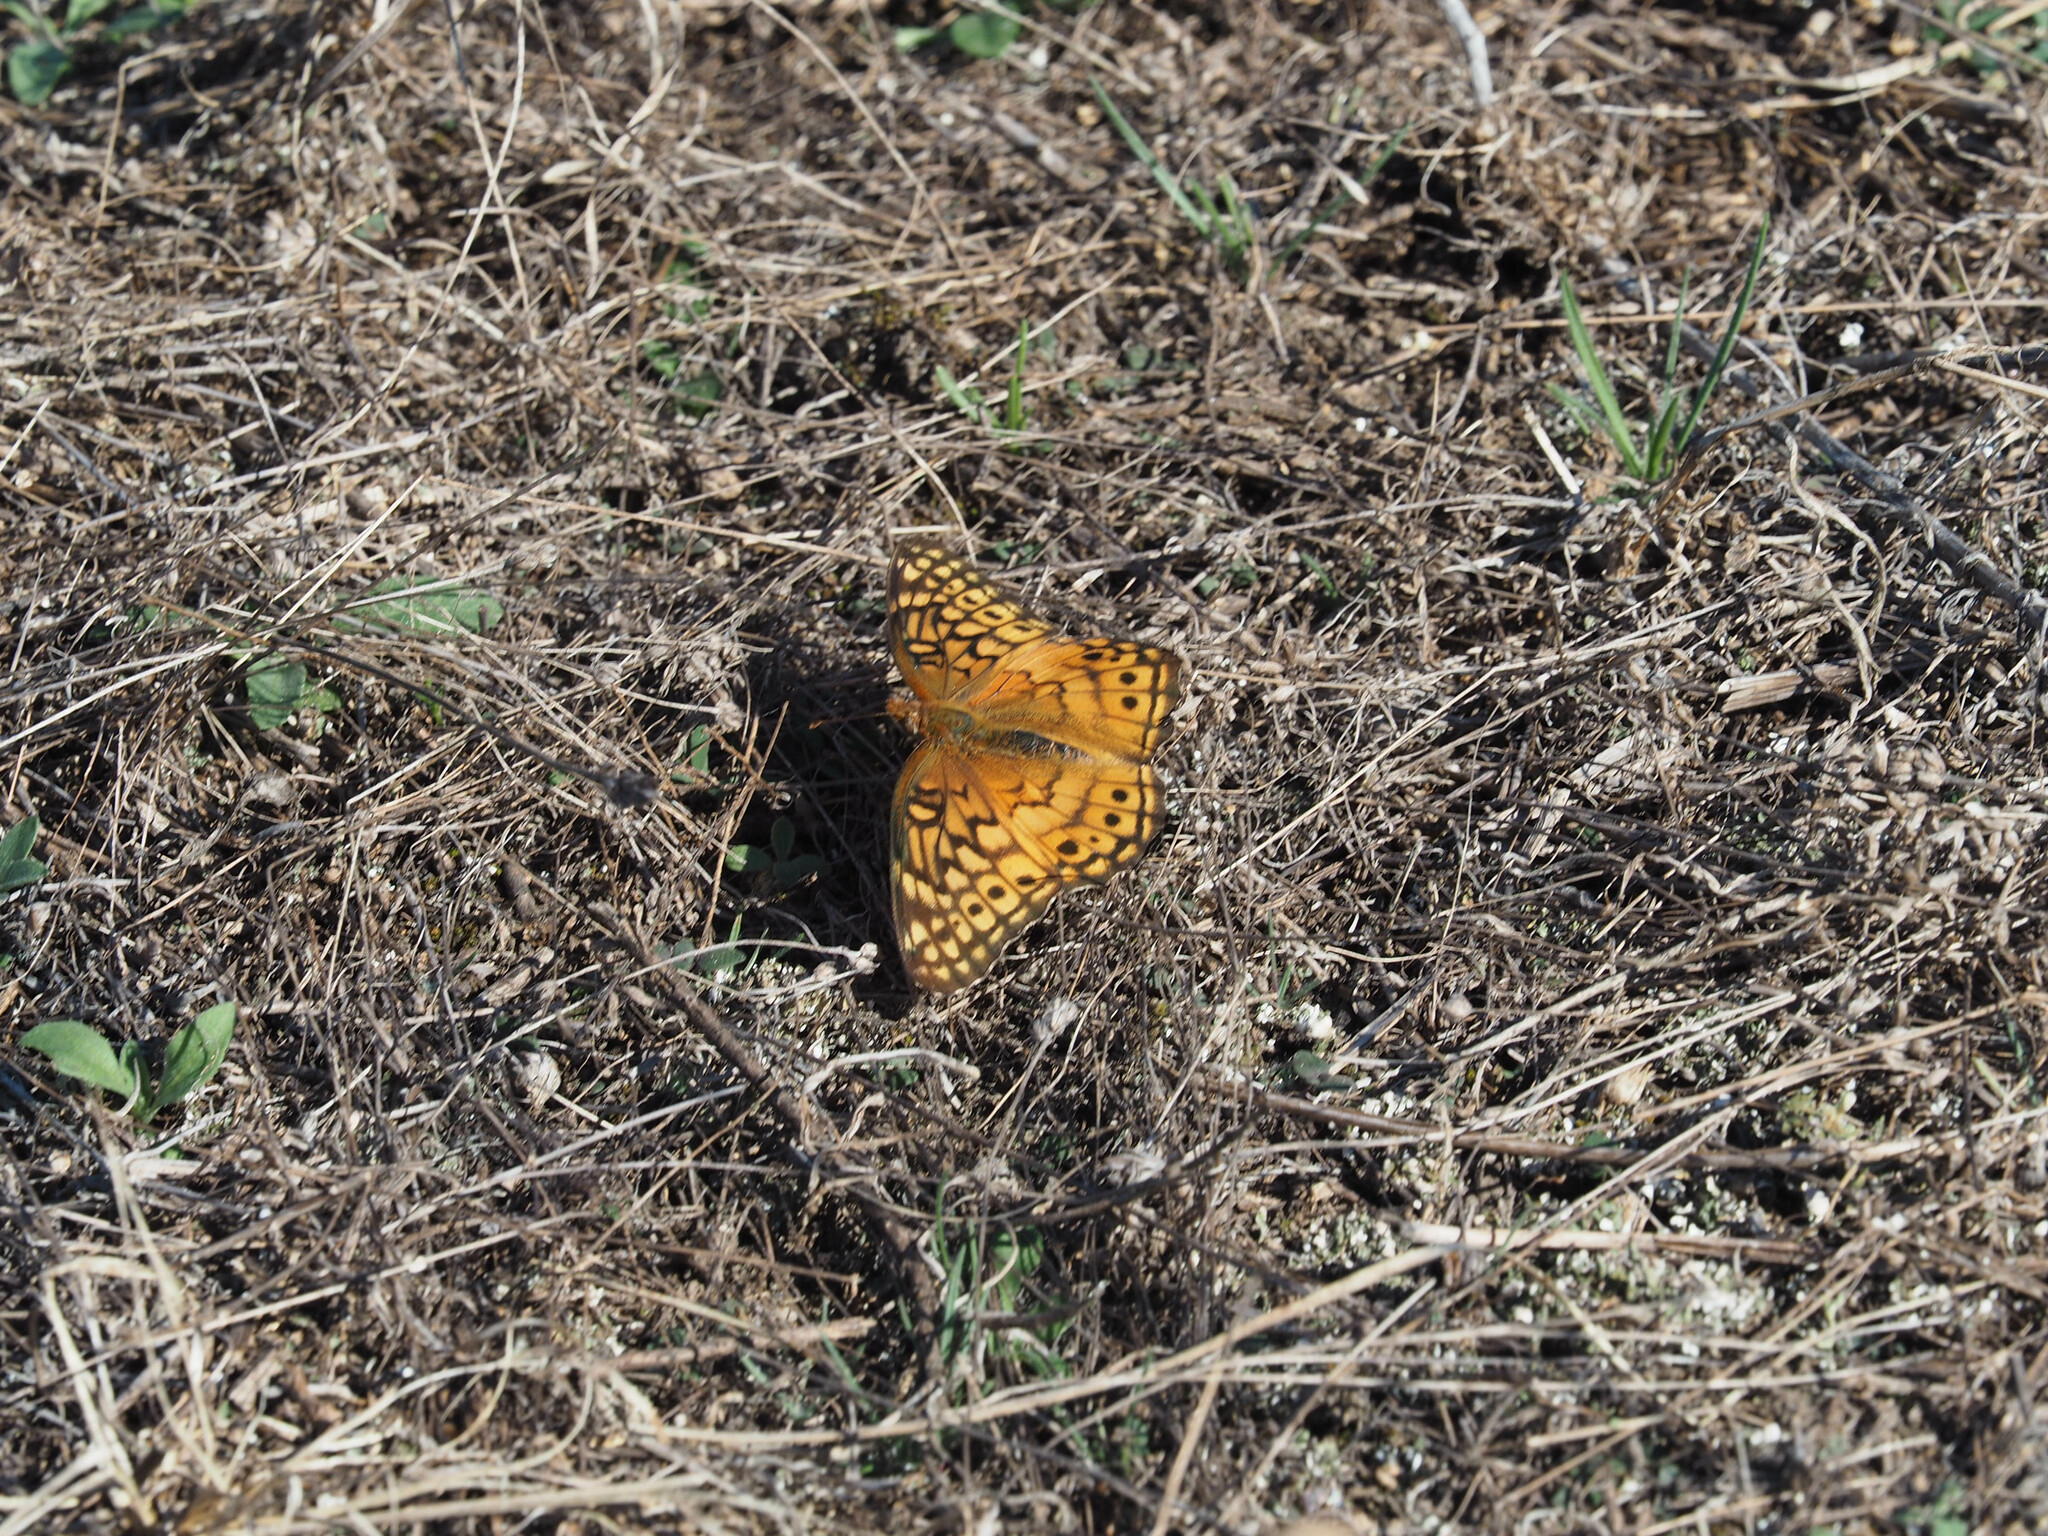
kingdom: Animalia
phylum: Arthropoda
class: Insecta
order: Lepidoptera
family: Nymphalidae
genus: Euptoieta
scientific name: Euptoieta claudia
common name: Variegated fritillary
